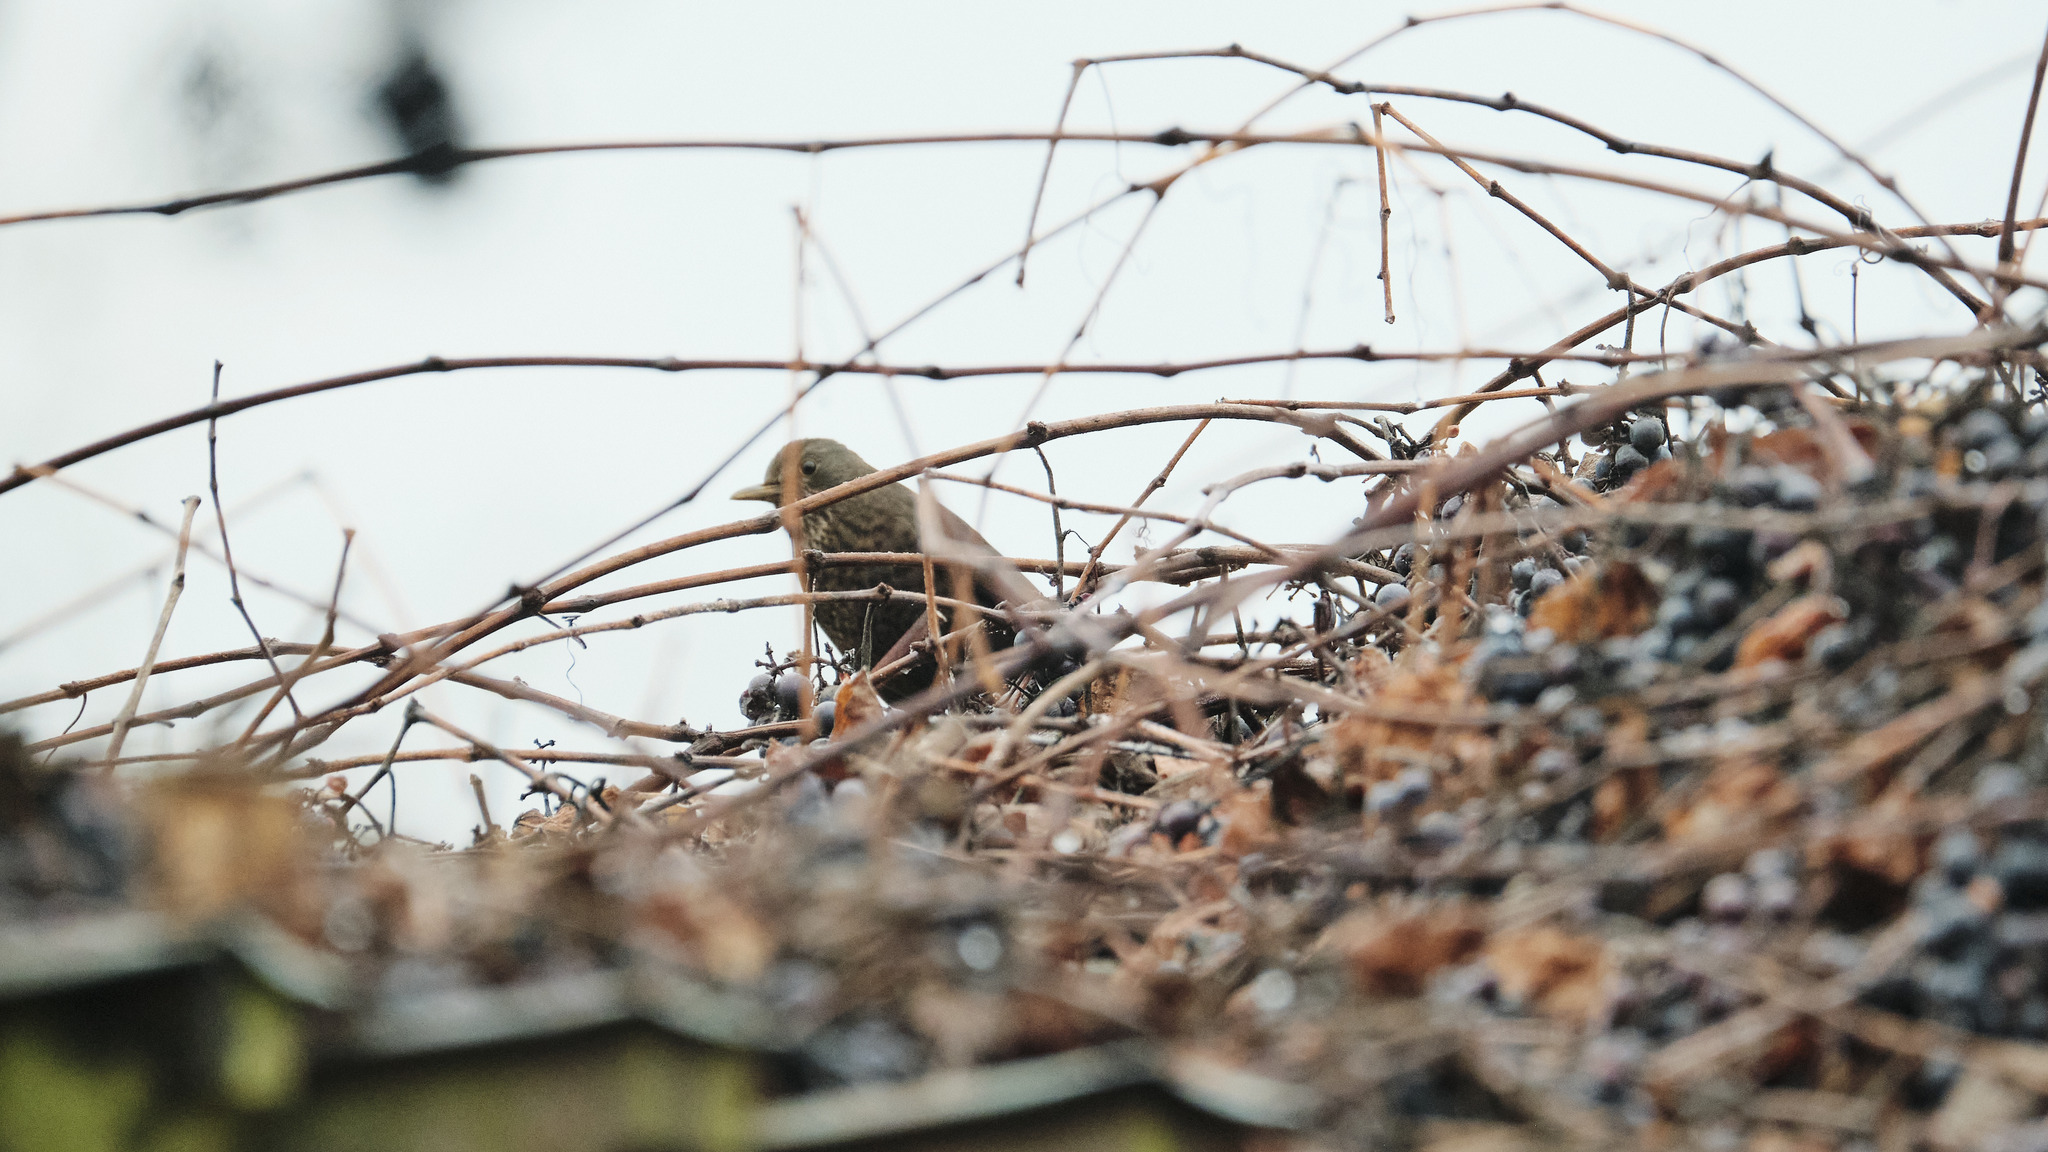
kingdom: Animalia
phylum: Chordata
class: Aves
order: Passeriformes
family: Turdidae
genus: Turdus
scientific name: Turdus merula
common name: Common blackbird
